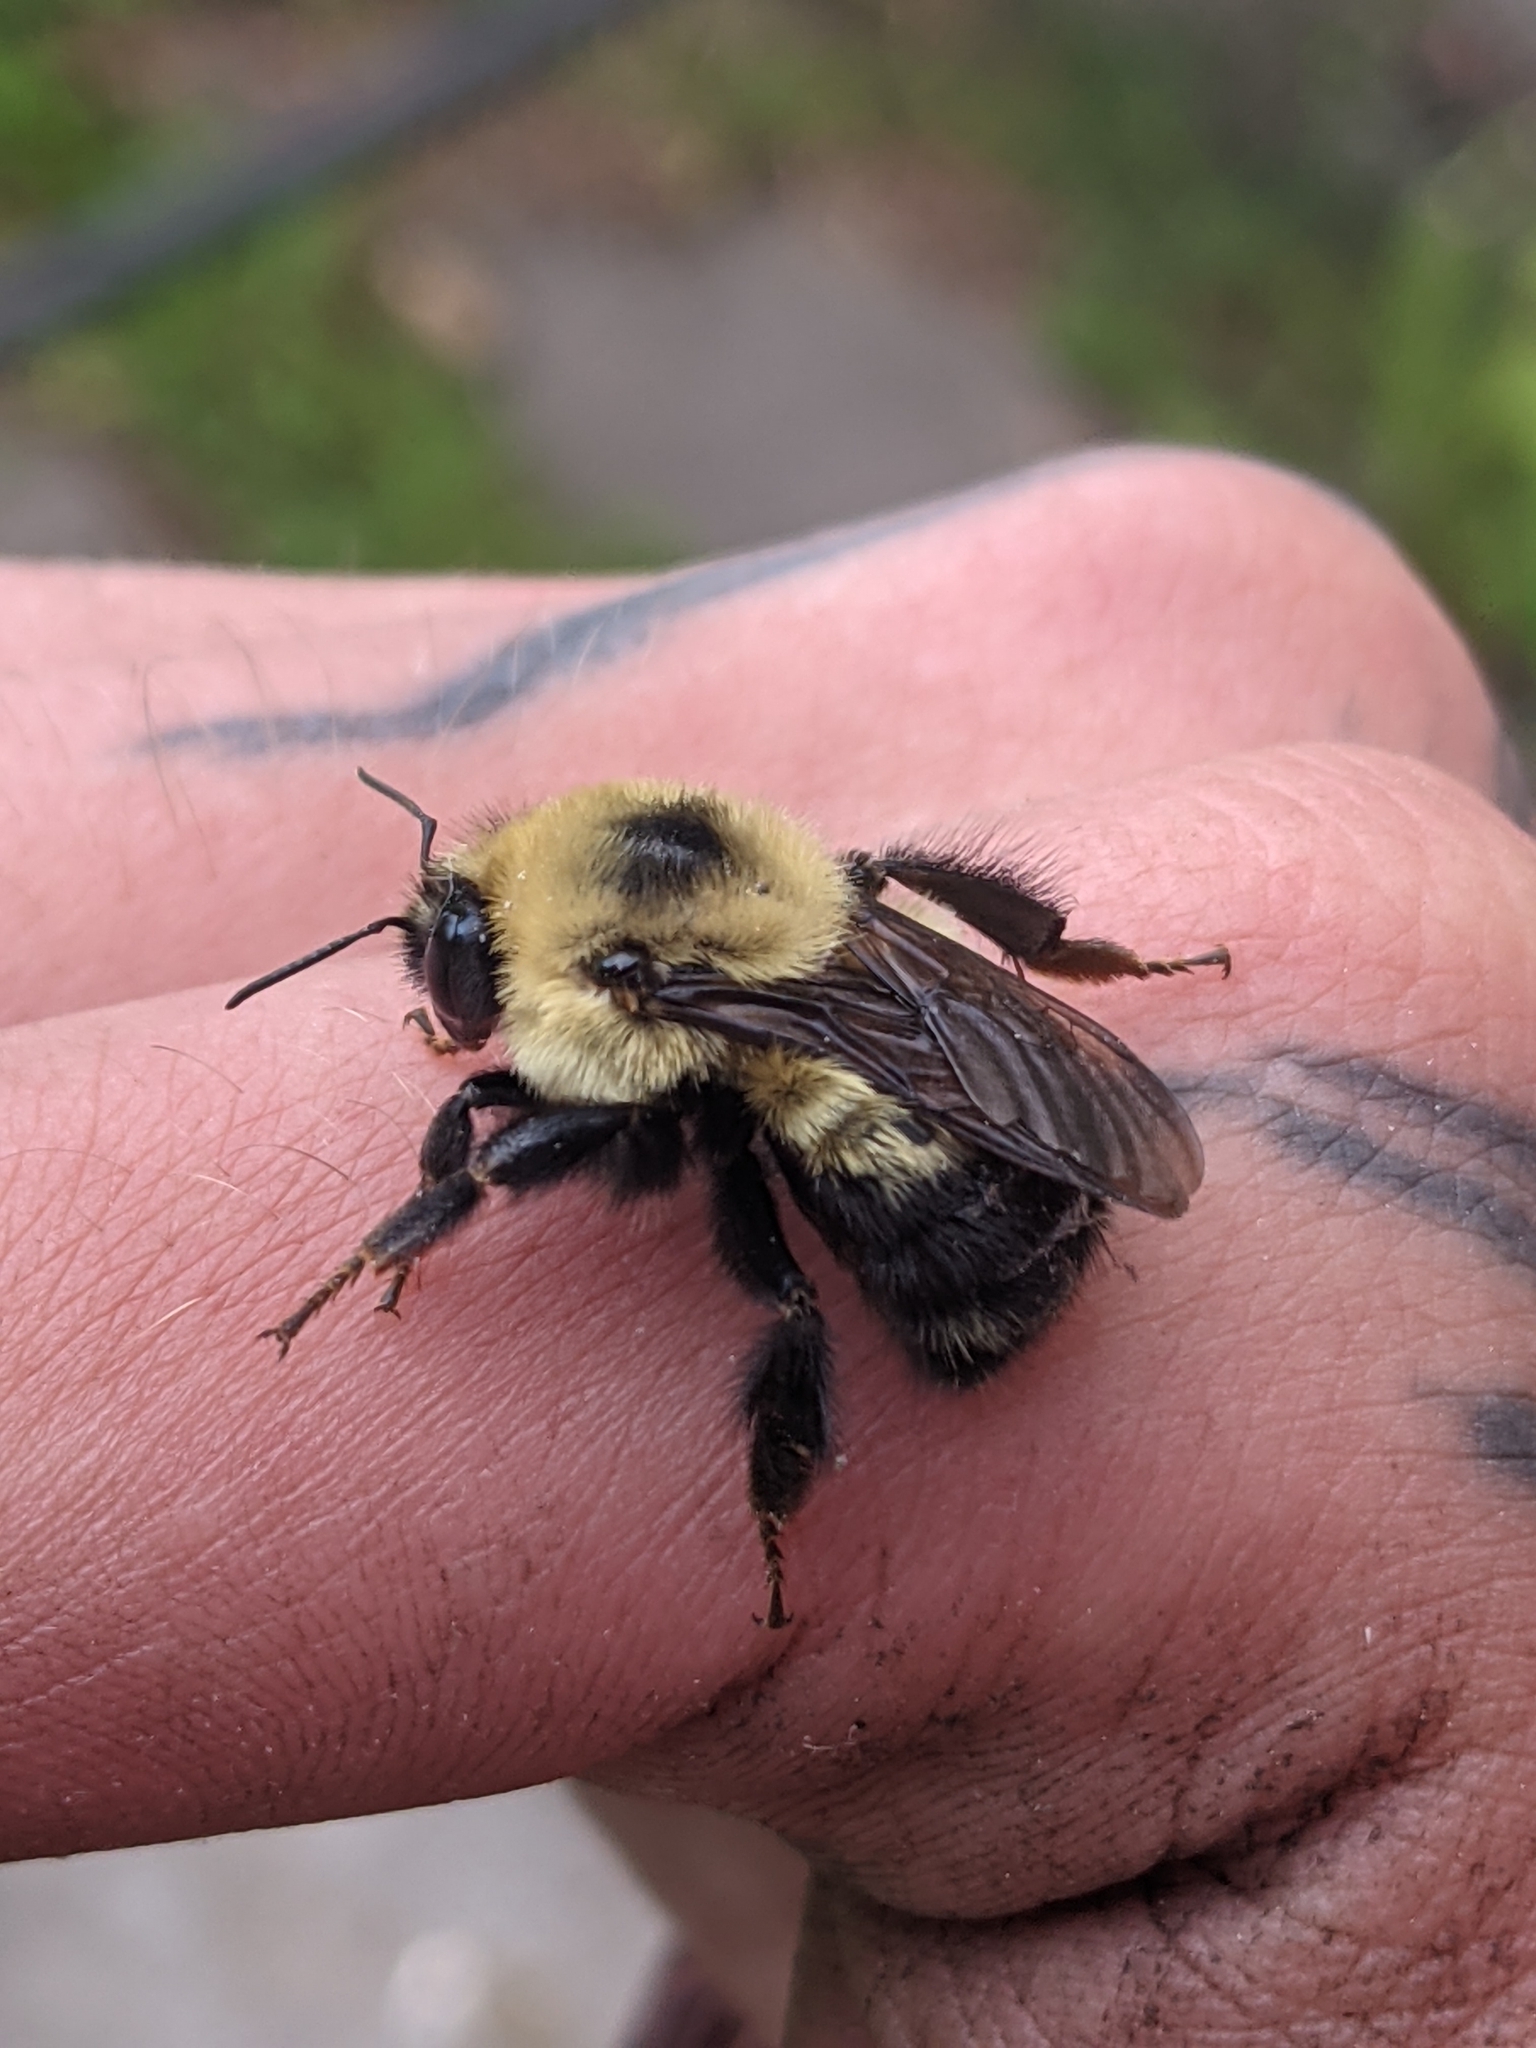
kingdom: Animalia
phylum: Arthropoda
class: Insecta
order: Hymenoptera
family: Apidae
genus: Bombus
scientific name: Bombus rufocinctus
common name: Red-belted bumble bee
